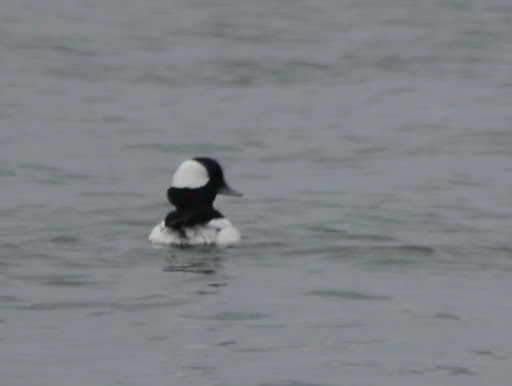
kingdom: Animalia
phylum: Chordata
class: Aves
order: Anseriformes
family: Anatidae
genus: Bucephala
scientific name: Bucephala albeola
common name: Bufflehead
